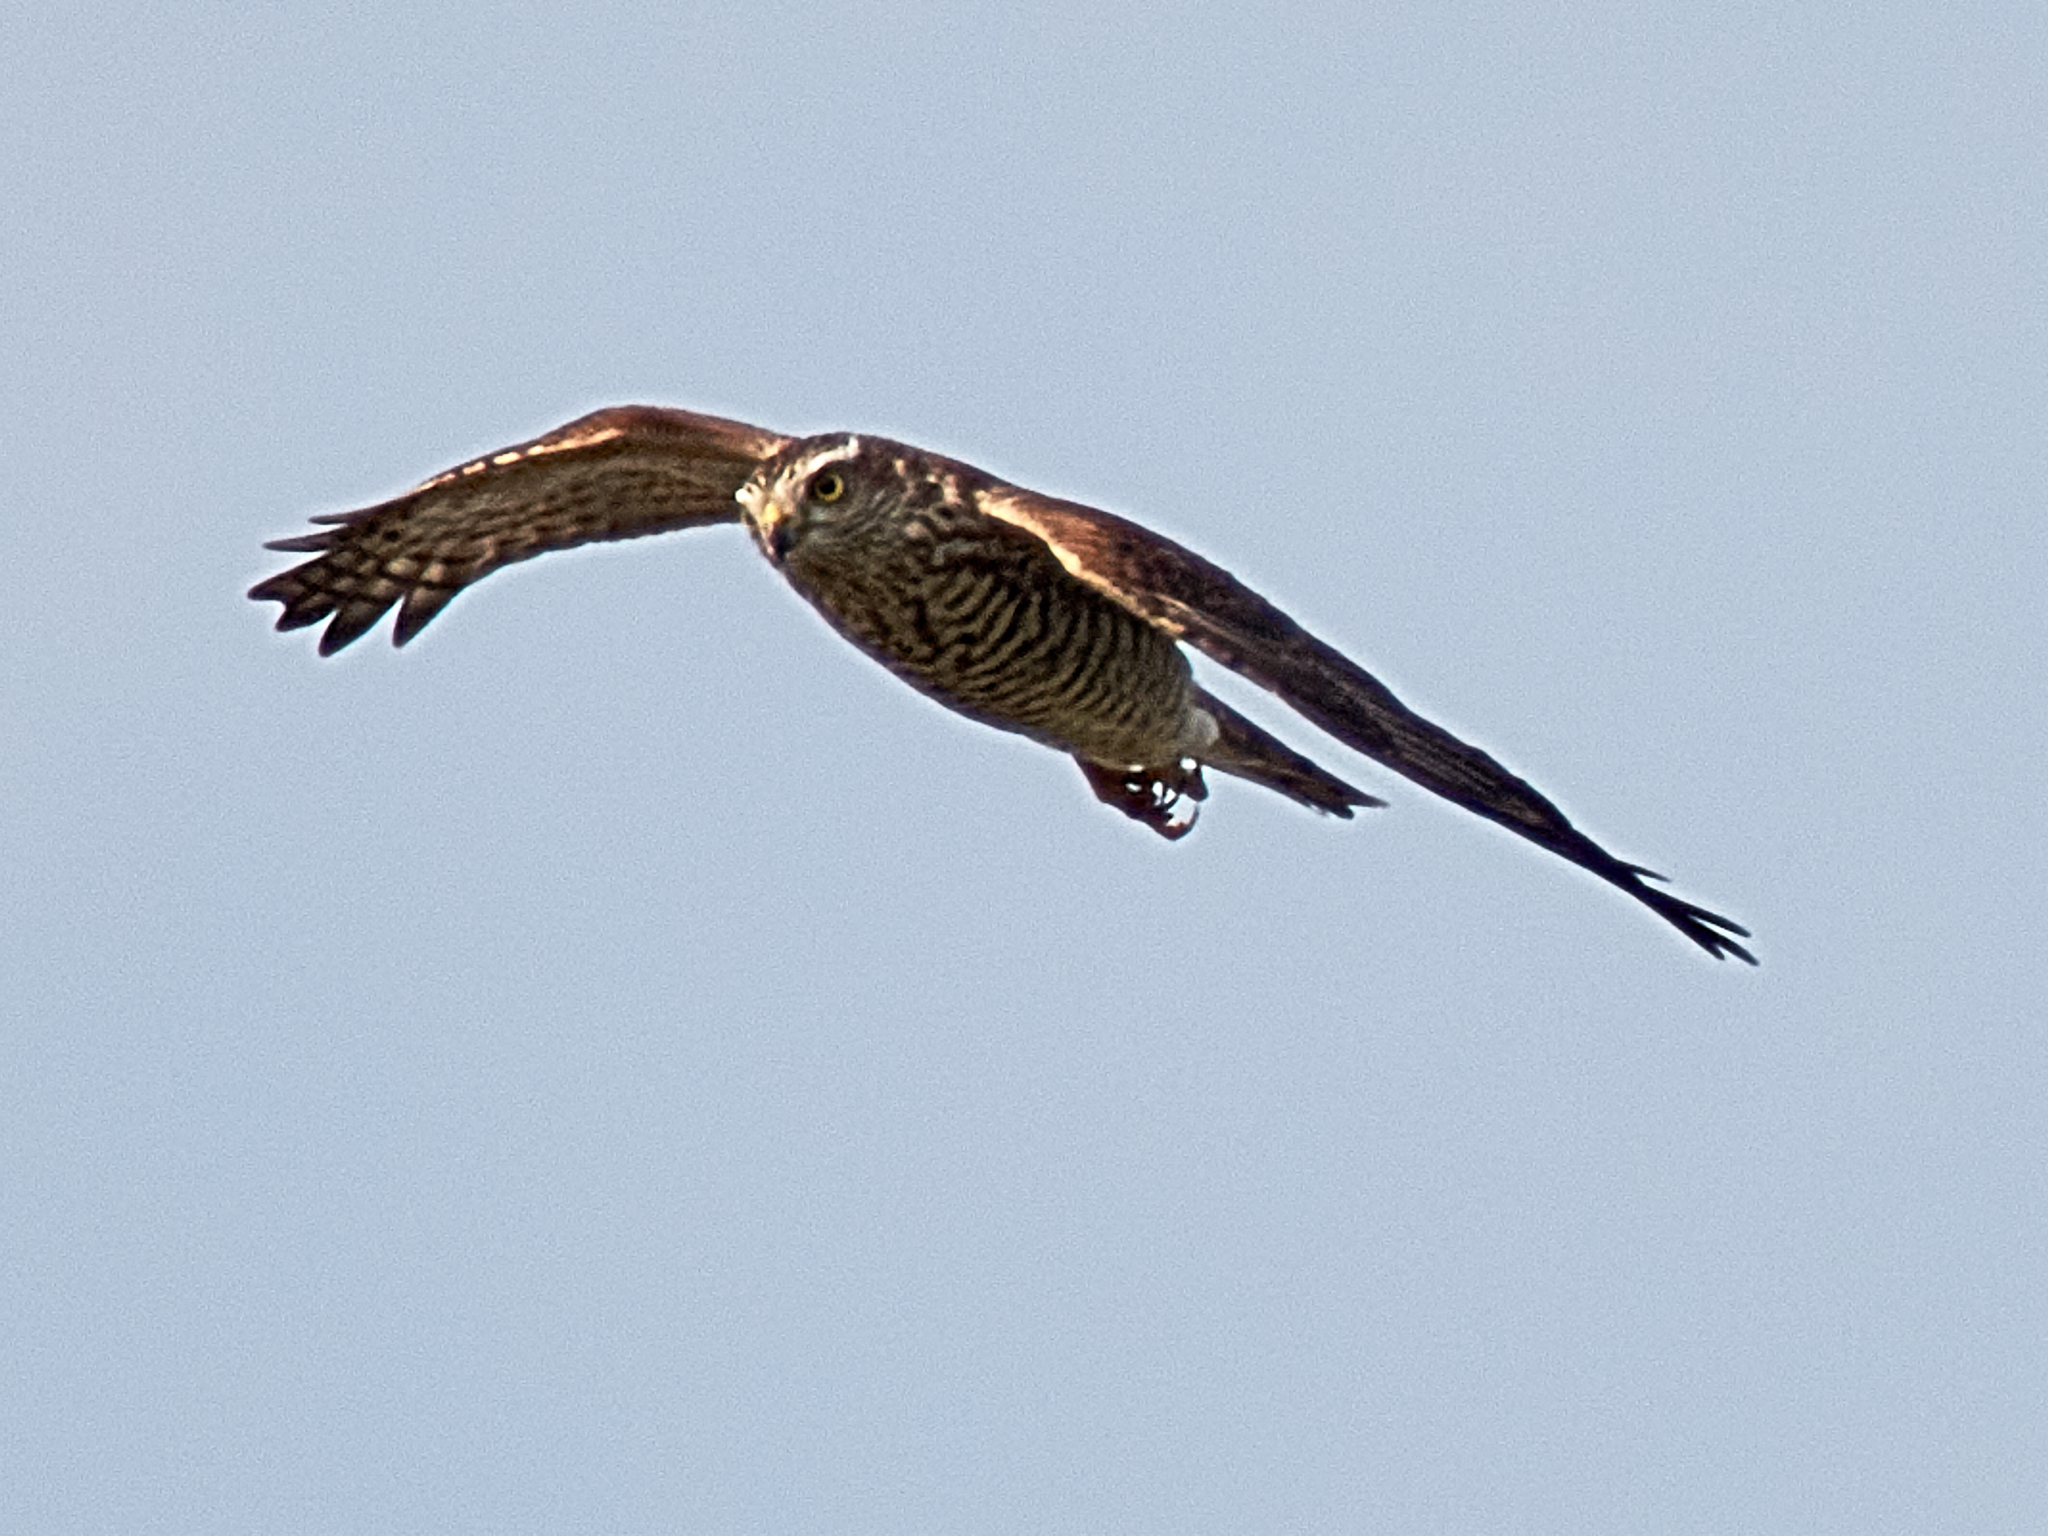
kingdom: Animalia
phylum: Chordata
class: Aves
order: Accipitriformes
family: Accipitridae
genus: Accipiter
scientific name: Accipiter nisus
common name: Eurasian sparrowhawk
